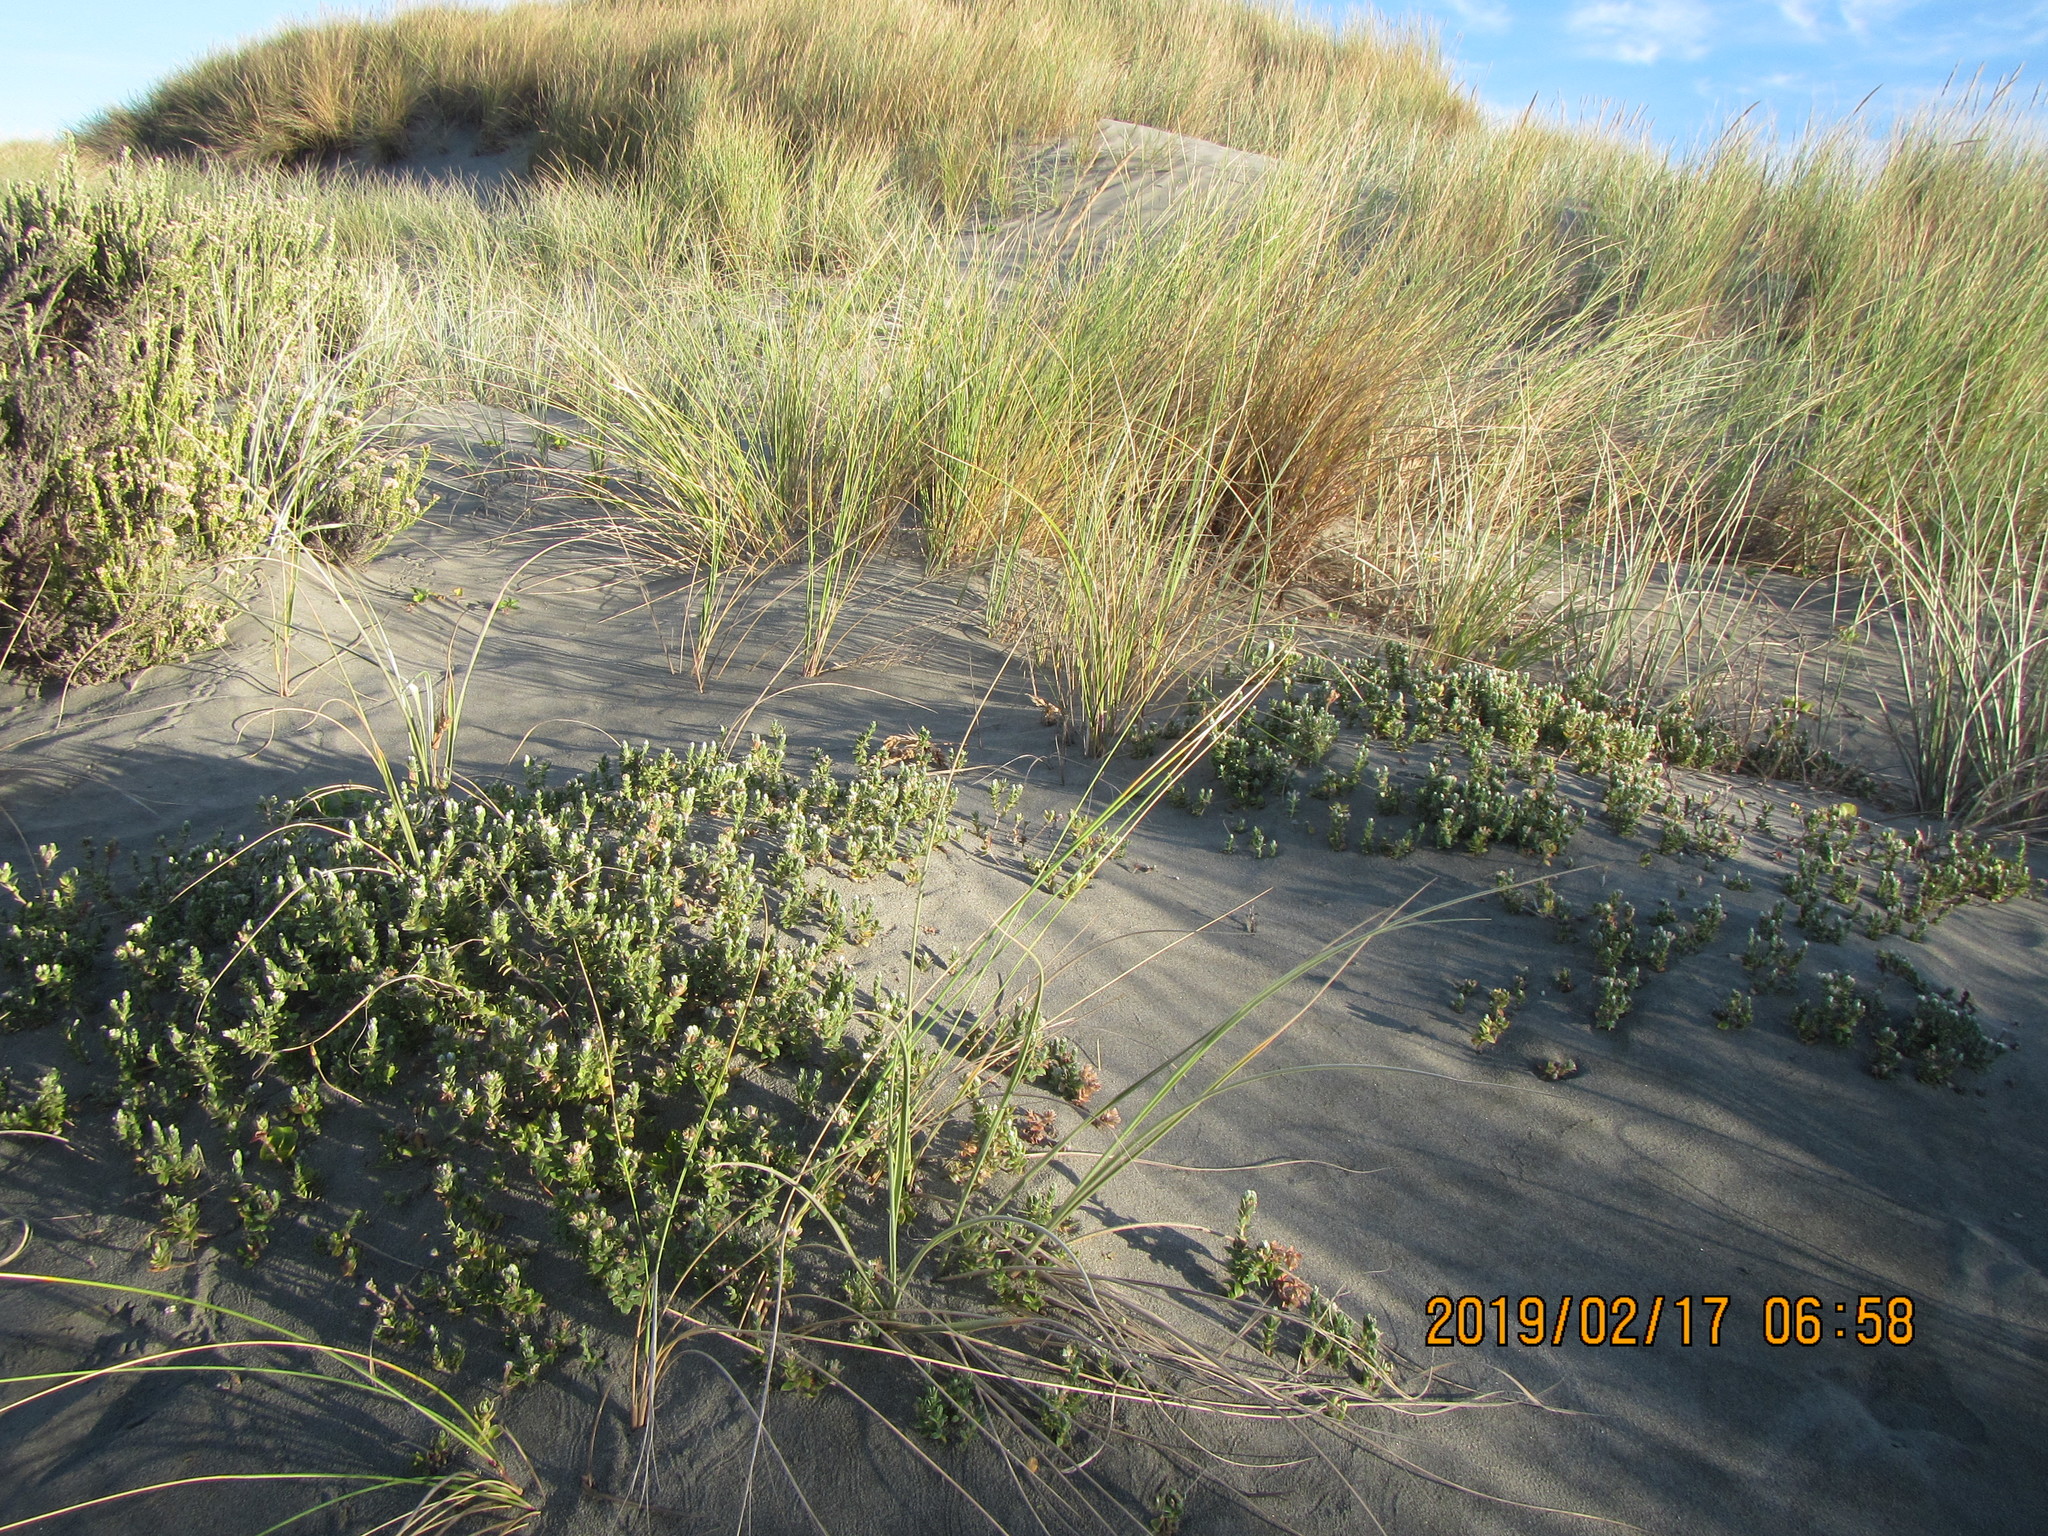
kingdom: Plantae
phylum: Tracheophyta
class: Magnoliopsida
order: Malvales
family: Thymelaeaceae
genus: Pimelea
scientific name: Pimelea villosa
